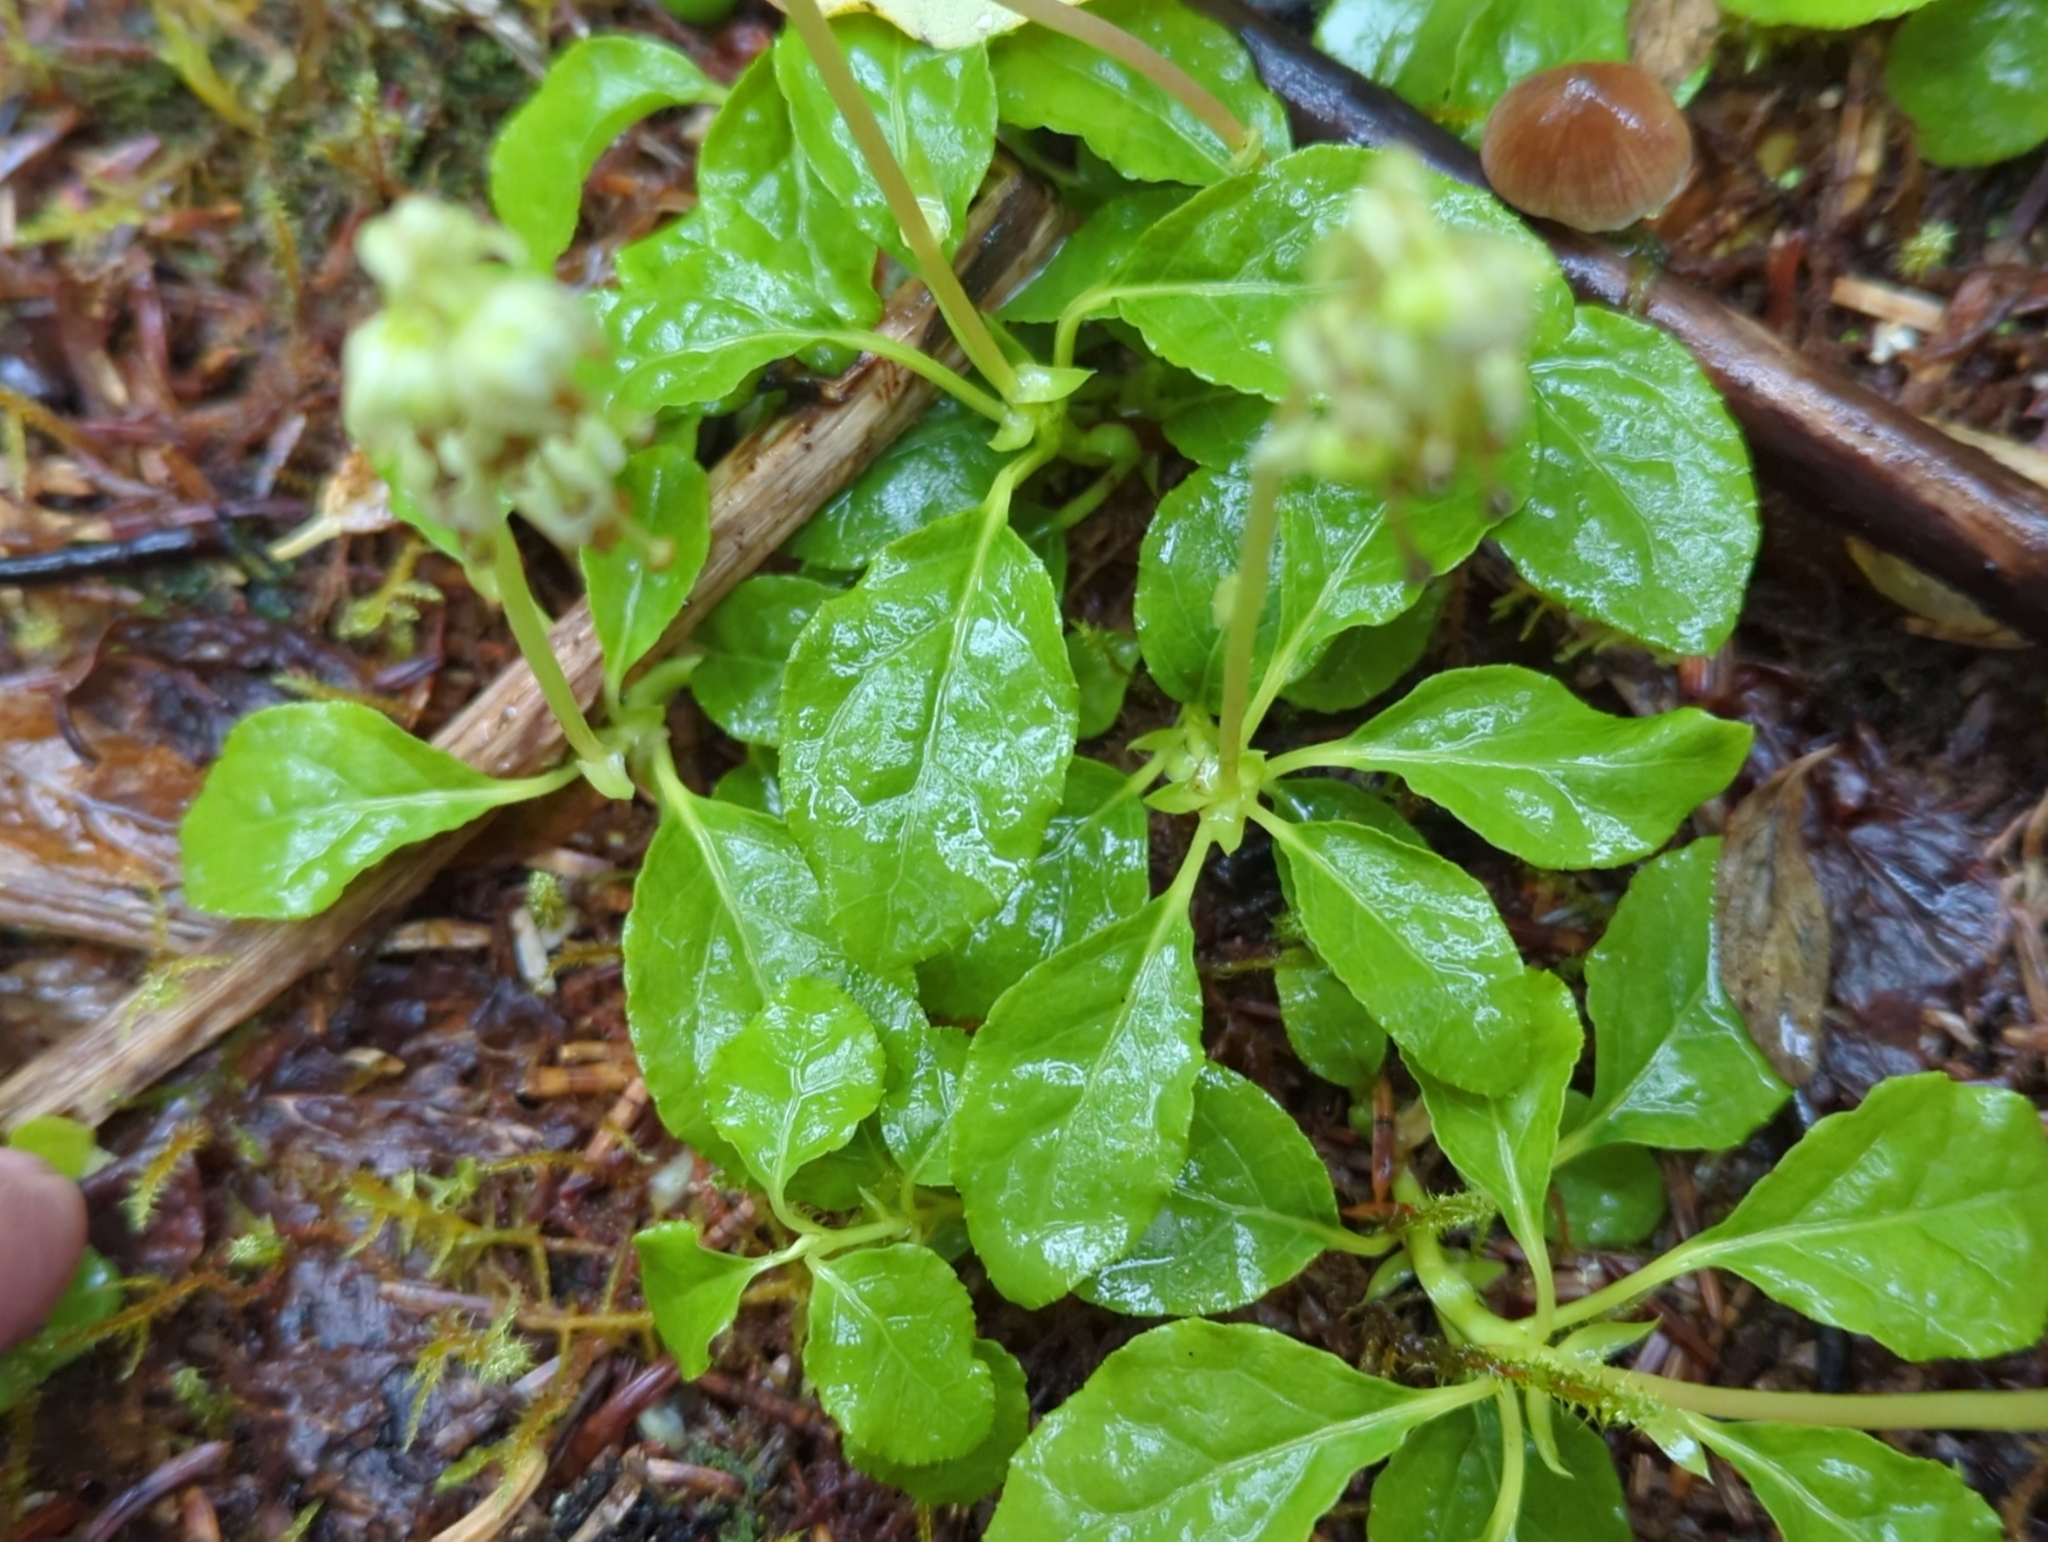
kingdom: Plantae
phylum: Tracheophyta
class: Magnoliopsida
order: Ericales
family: Ericaceae
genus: Orthilia
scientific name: Orthilia secunda
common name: One-sided orthilia
